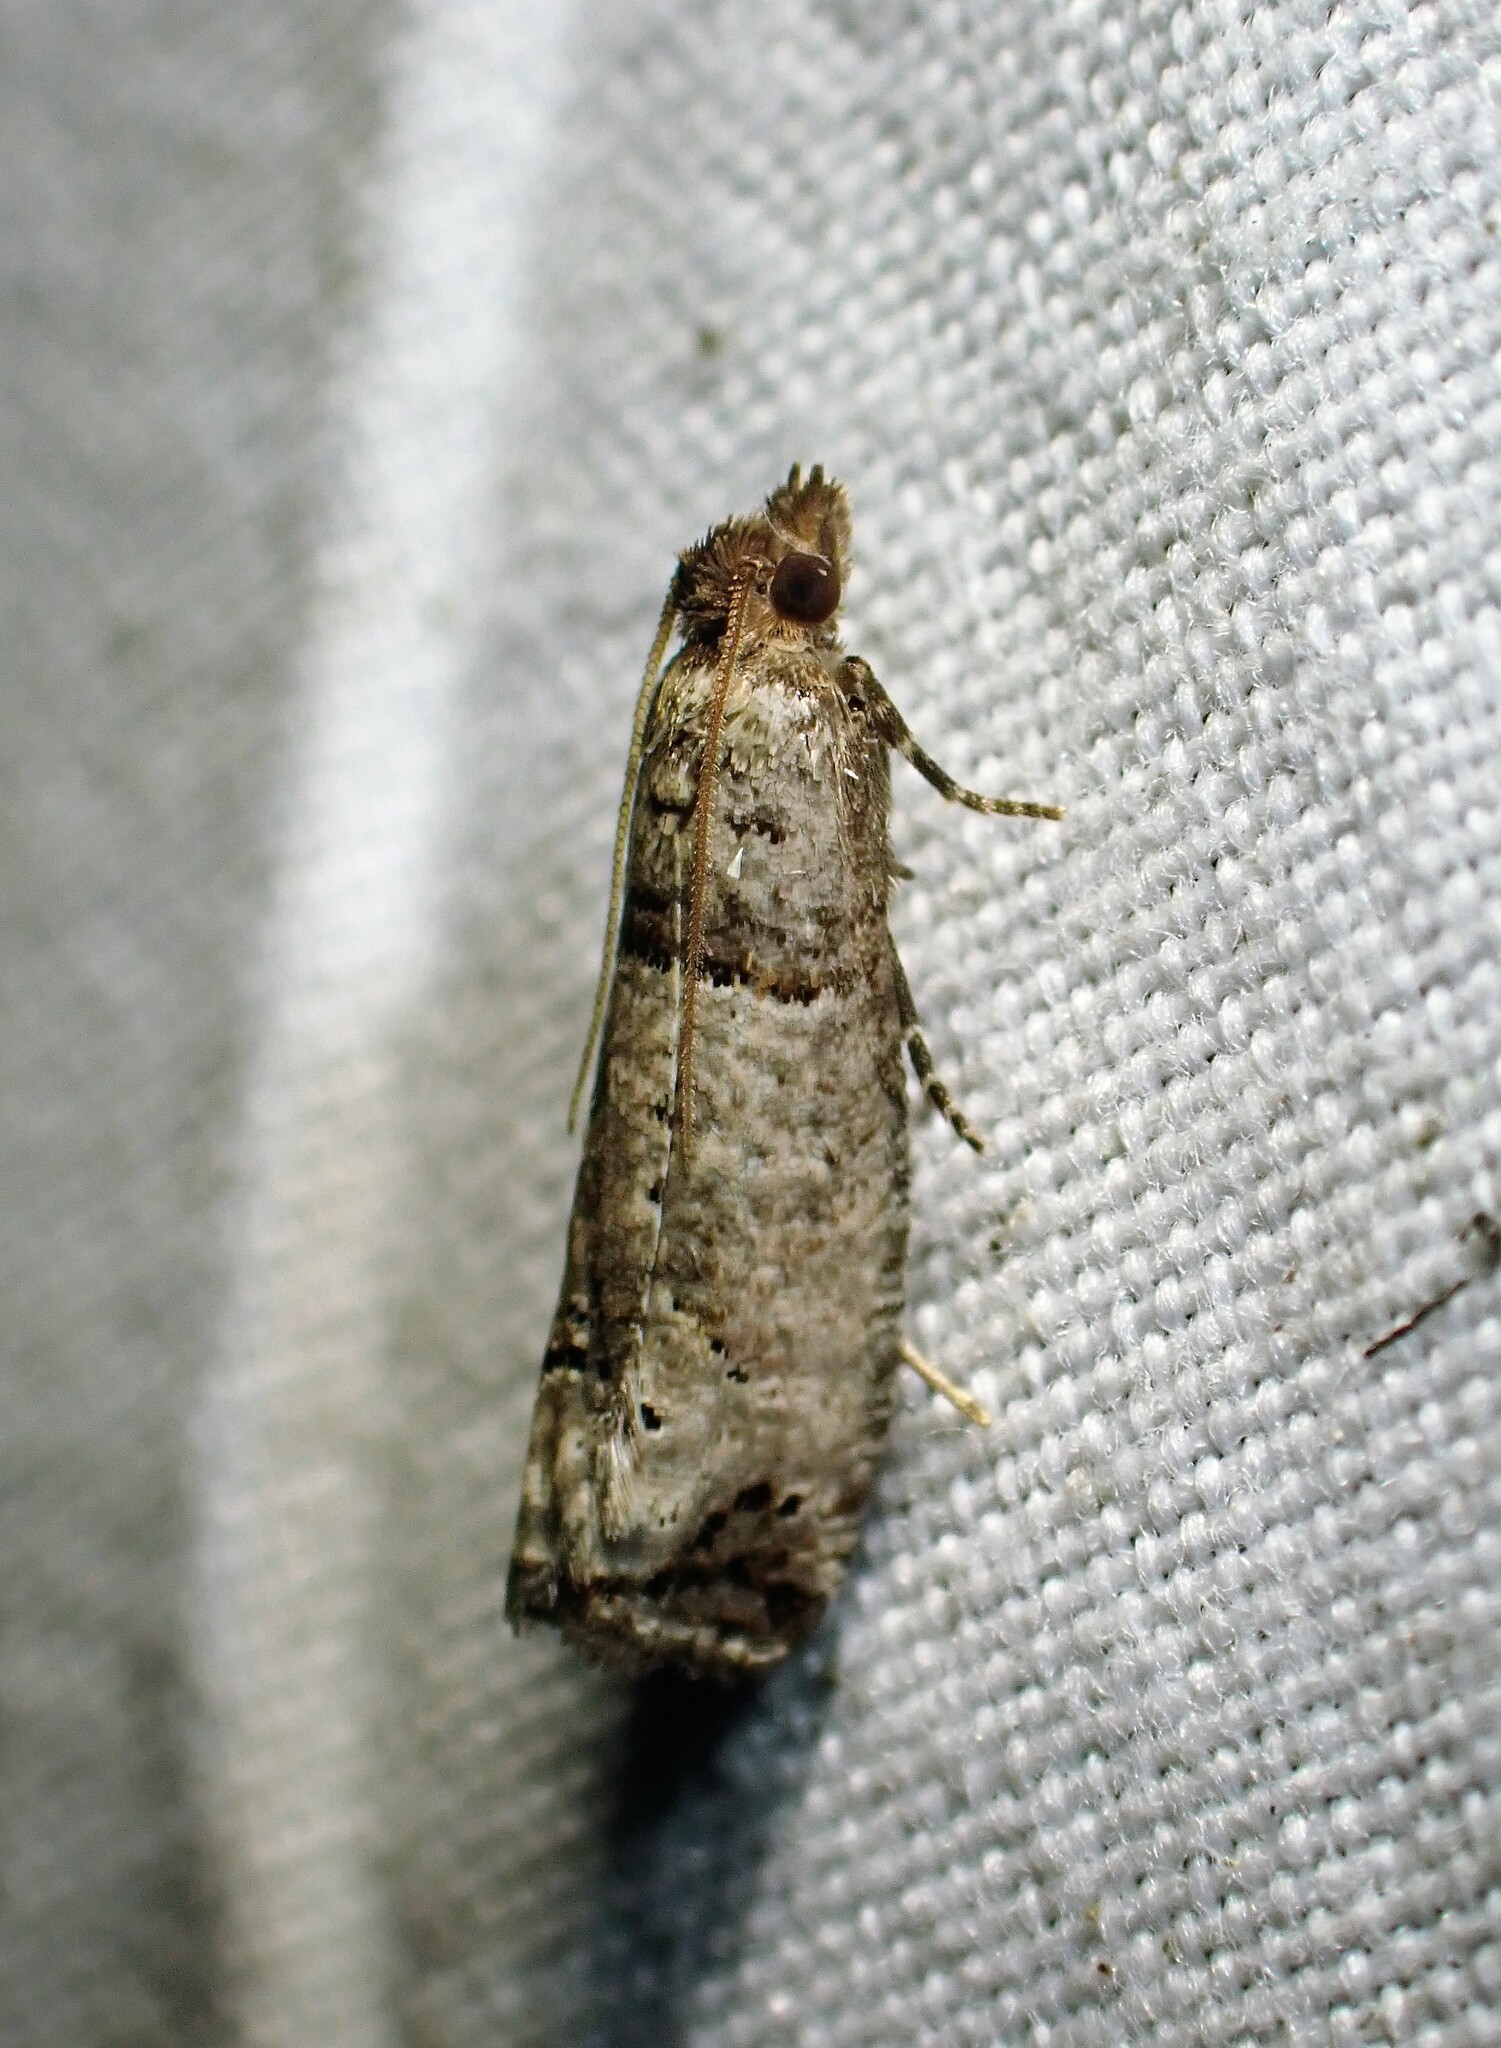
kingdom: Animalia
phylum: Arthropoda
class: Insecta
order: Lepidoptera
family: Tortricidae
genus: Notocelia
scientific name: Notocelia culminana
